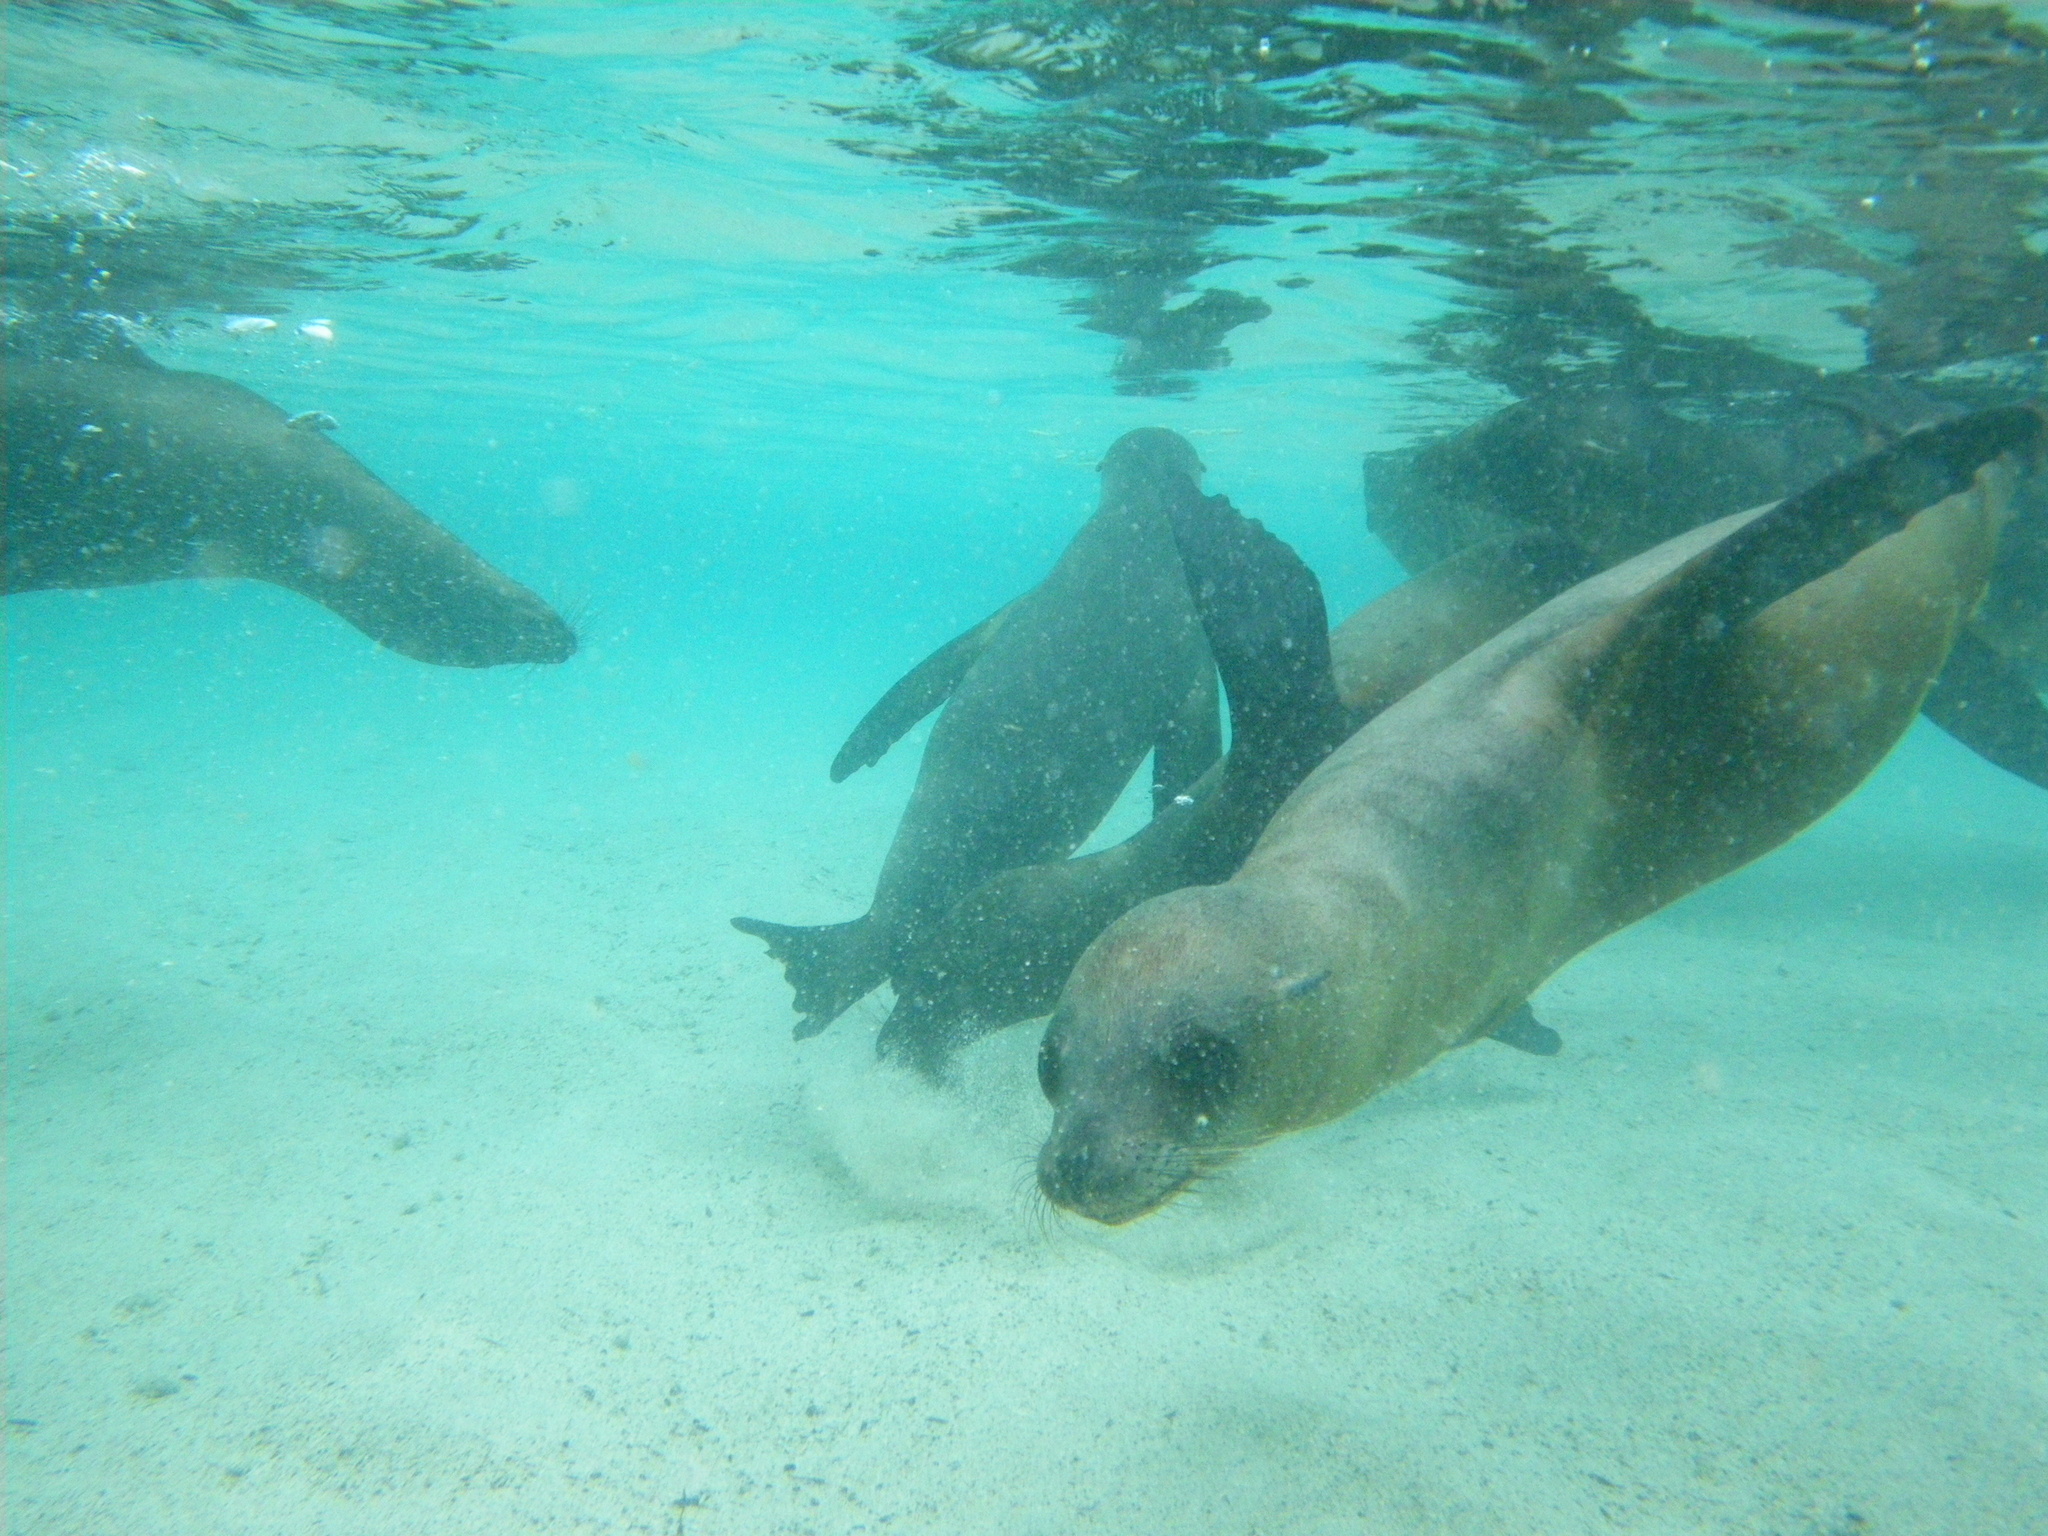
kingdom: Animalia
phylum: Chordata
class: Mammalia
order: Carnivora
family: Otariidae
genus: Zalophus
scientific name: Zalophus wollebaeki
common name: Galapagos sea lion
